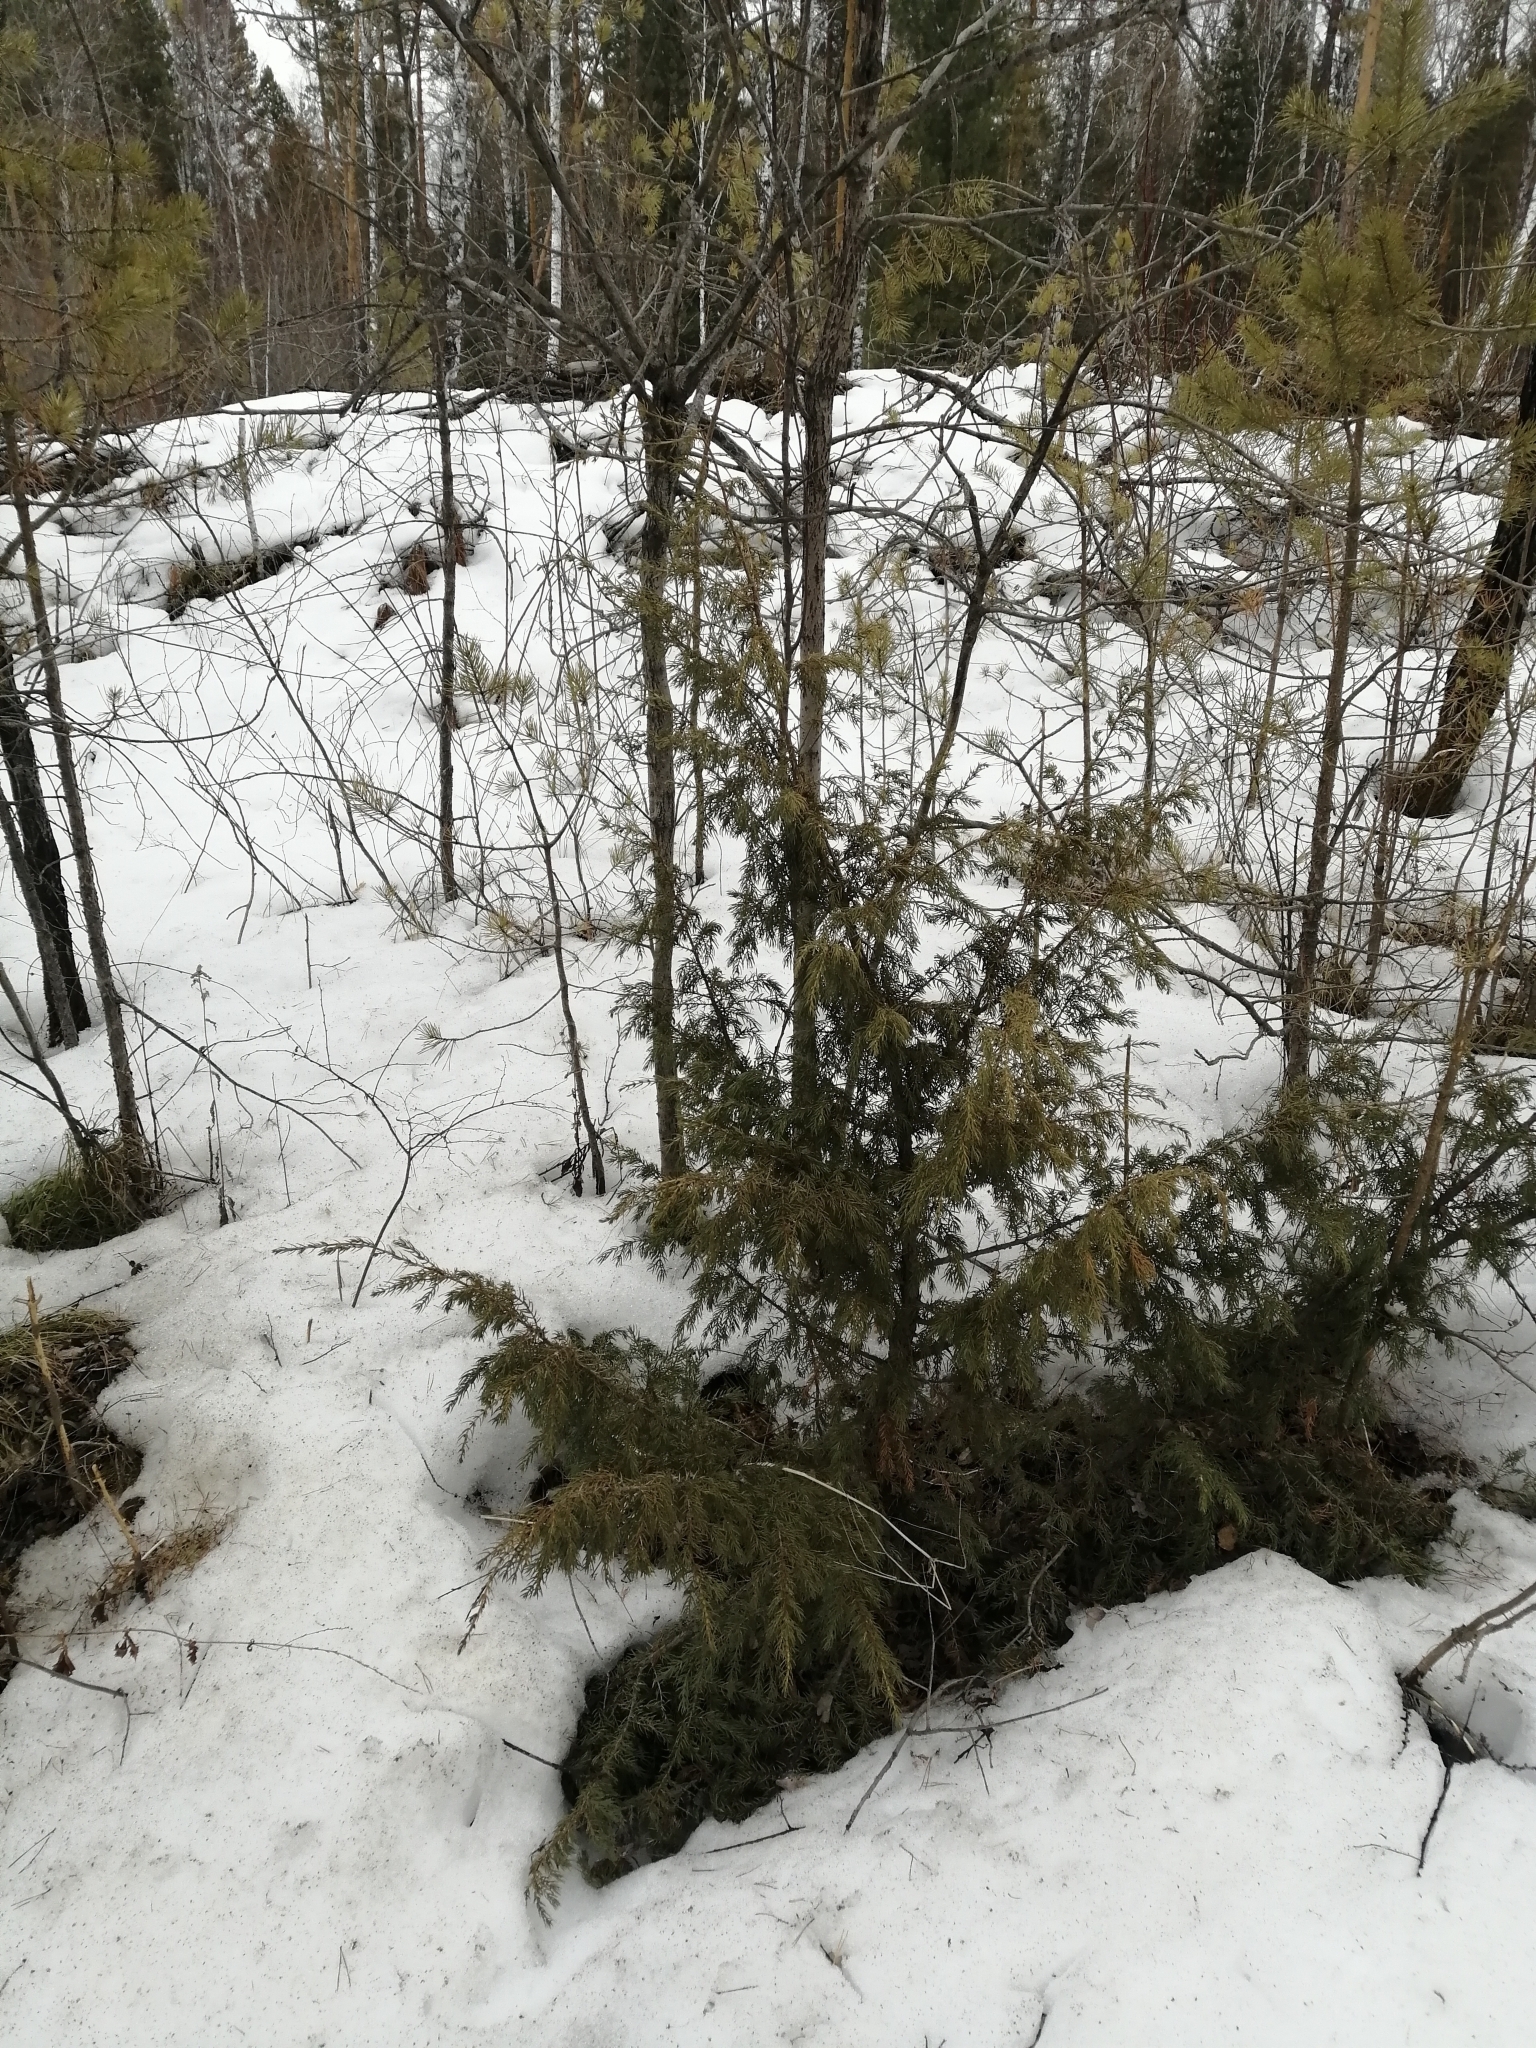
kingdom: Plantae
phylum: Tracheophyta
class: Pinopsida
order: Pinales
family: Cupressaceae
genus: Juniperus
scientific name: Juniperus communis
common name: Common juniper
